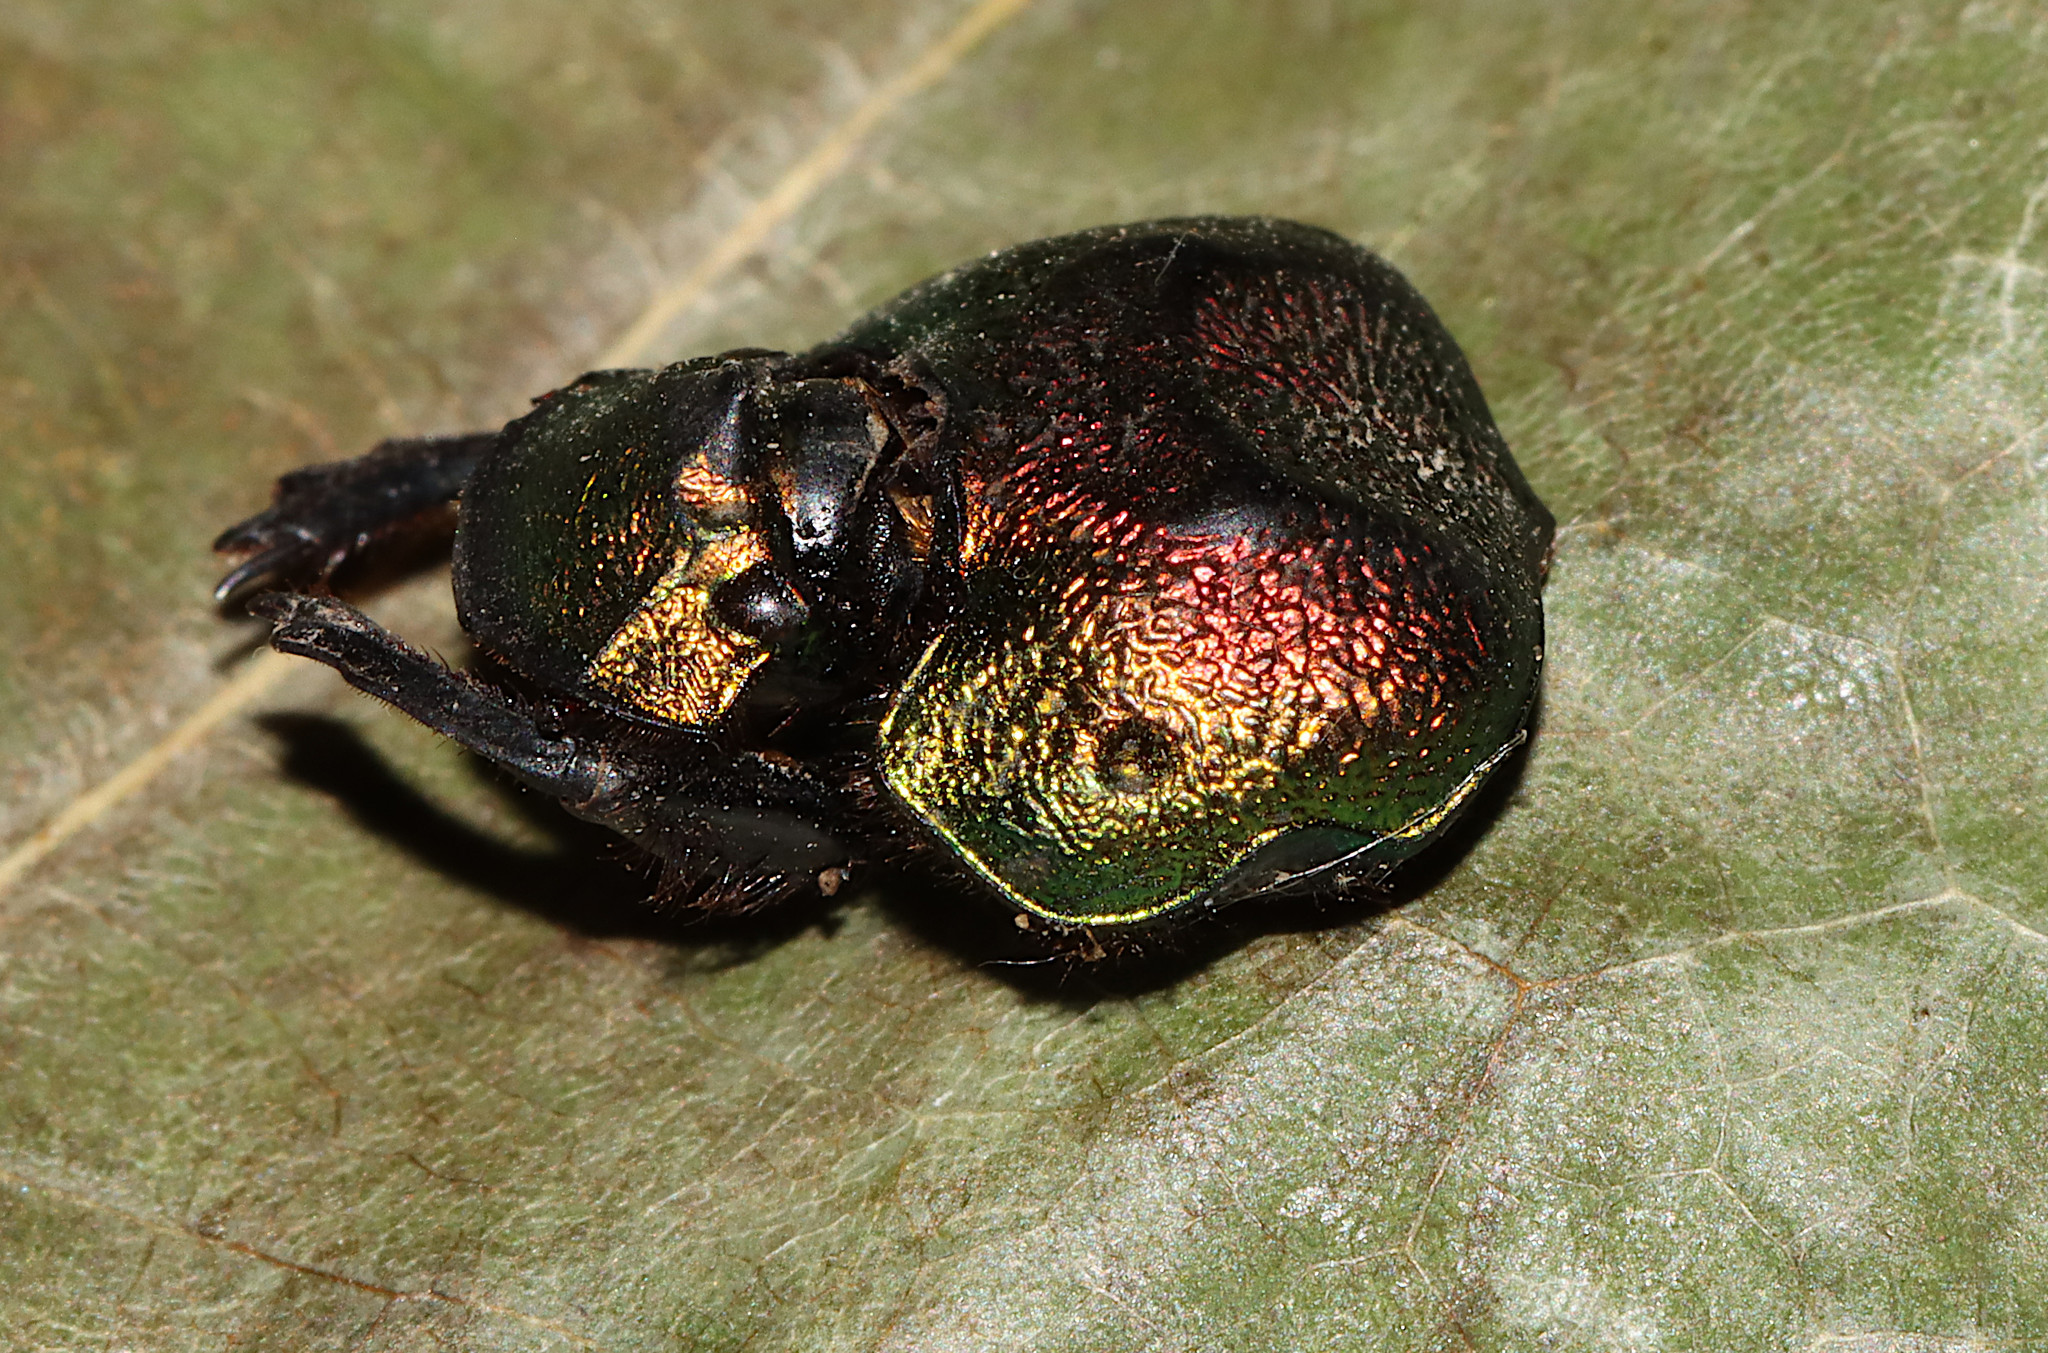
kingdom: Animalia
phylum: Arthropoda
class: Insecta
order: Coleoptera
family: Scarabaeidae
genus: Phanaeus
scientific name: Phanaeus vindex
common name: Rainbow scarab
